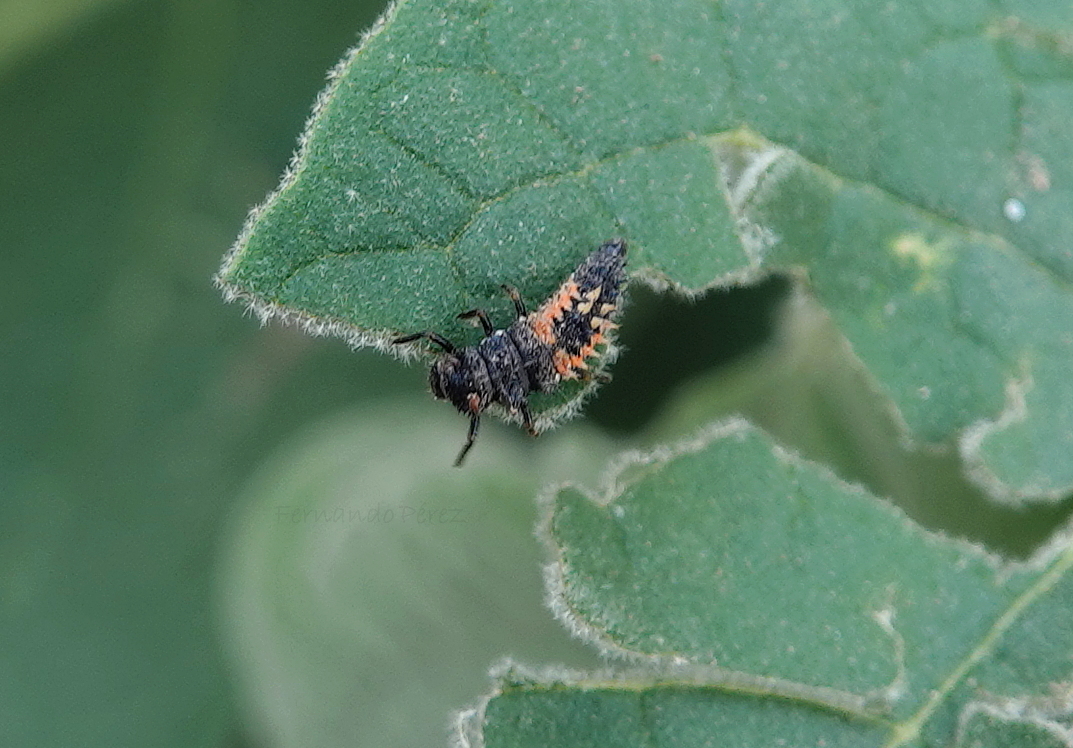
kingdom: Animalia
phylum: Arthropoda
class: Insecta
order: Coleoptera
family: Coccinellidae
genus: Harmonia
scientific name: Harmonia axyridis
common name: Harlequin ladybird
